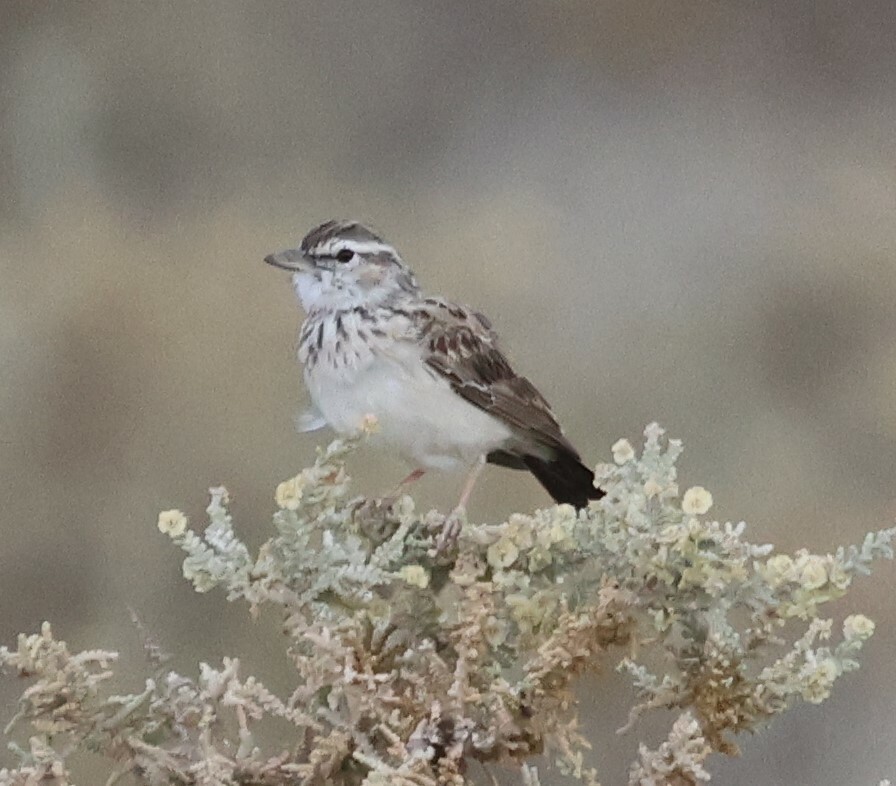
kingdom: Animalia
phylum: Chordata
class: Aves
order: Passeriformes
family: Alaudidae
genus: Calendulauda
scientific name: Calendulauda sabota
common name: Sabota lark
